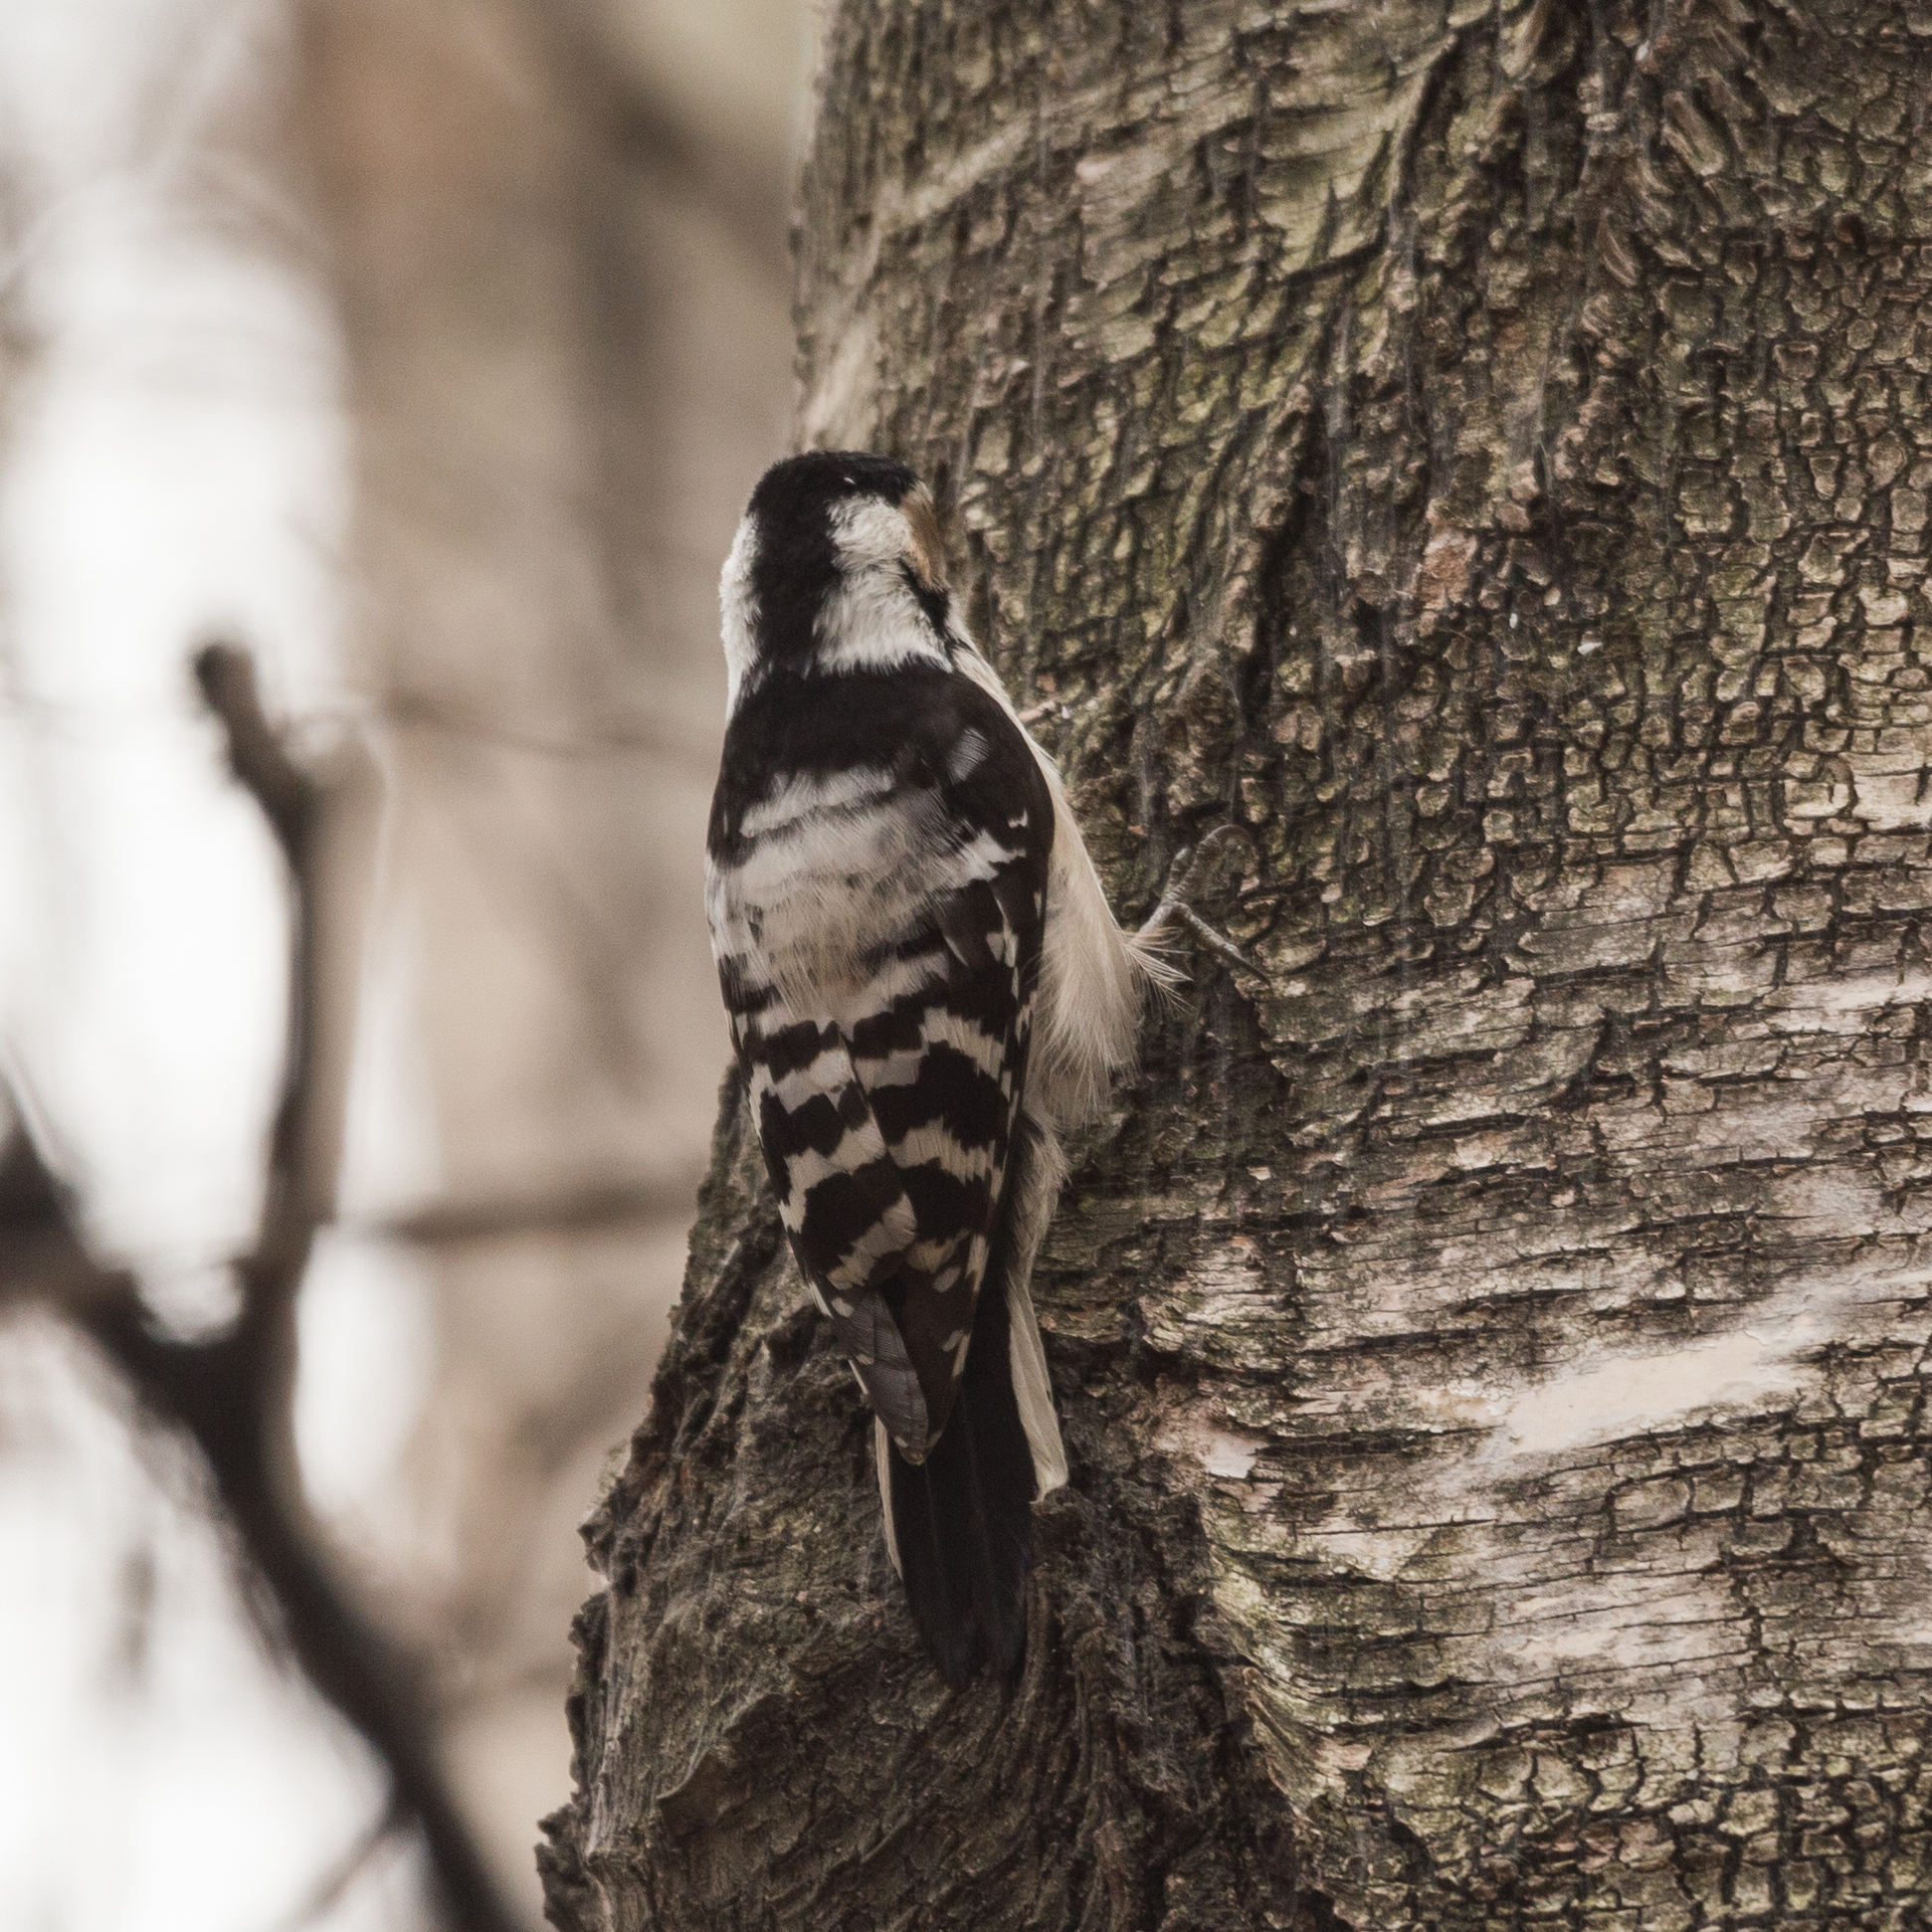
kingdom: Animalia
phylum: Chordata
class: Aves
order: Piciformes
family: Picidae
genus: Dryobates
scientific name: Dryobates minor
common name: Lesser spotted woodpecker
